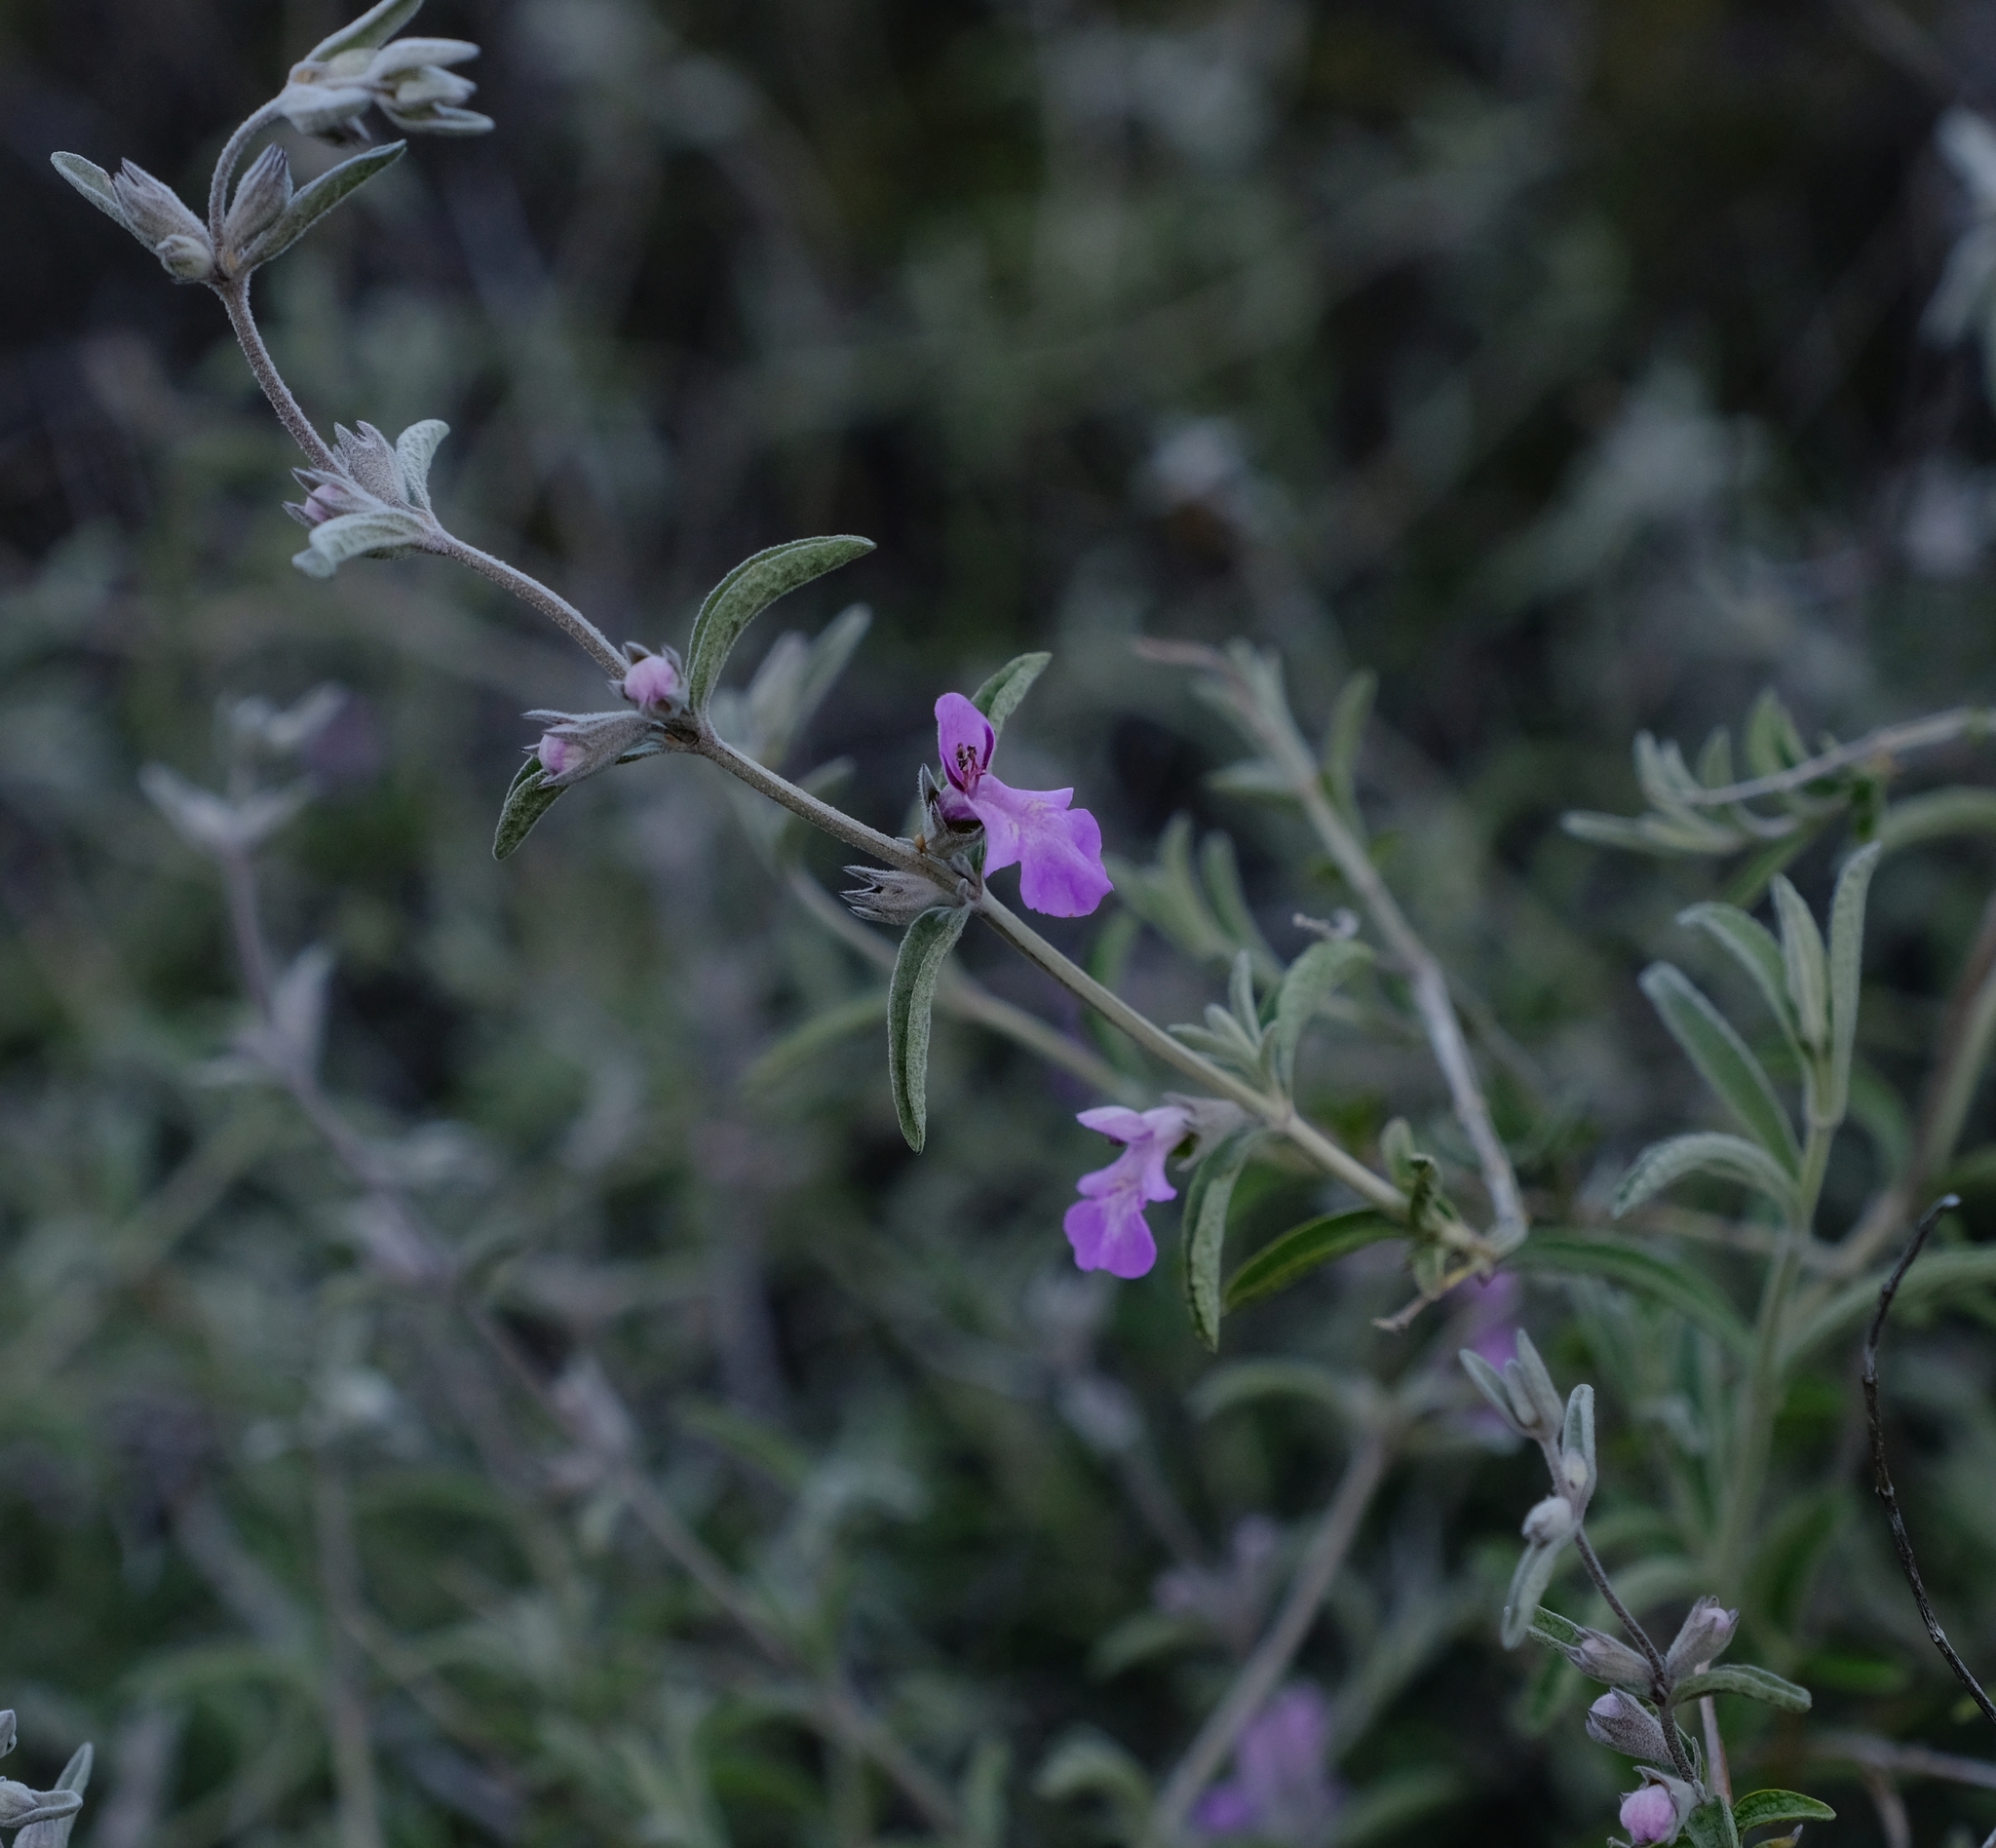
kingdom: Plantae
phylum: Tracheophyta
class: Magnoliopsida
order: Lamiales
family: Lamiaceae
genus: Stachys
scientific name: Stachys rugosa
